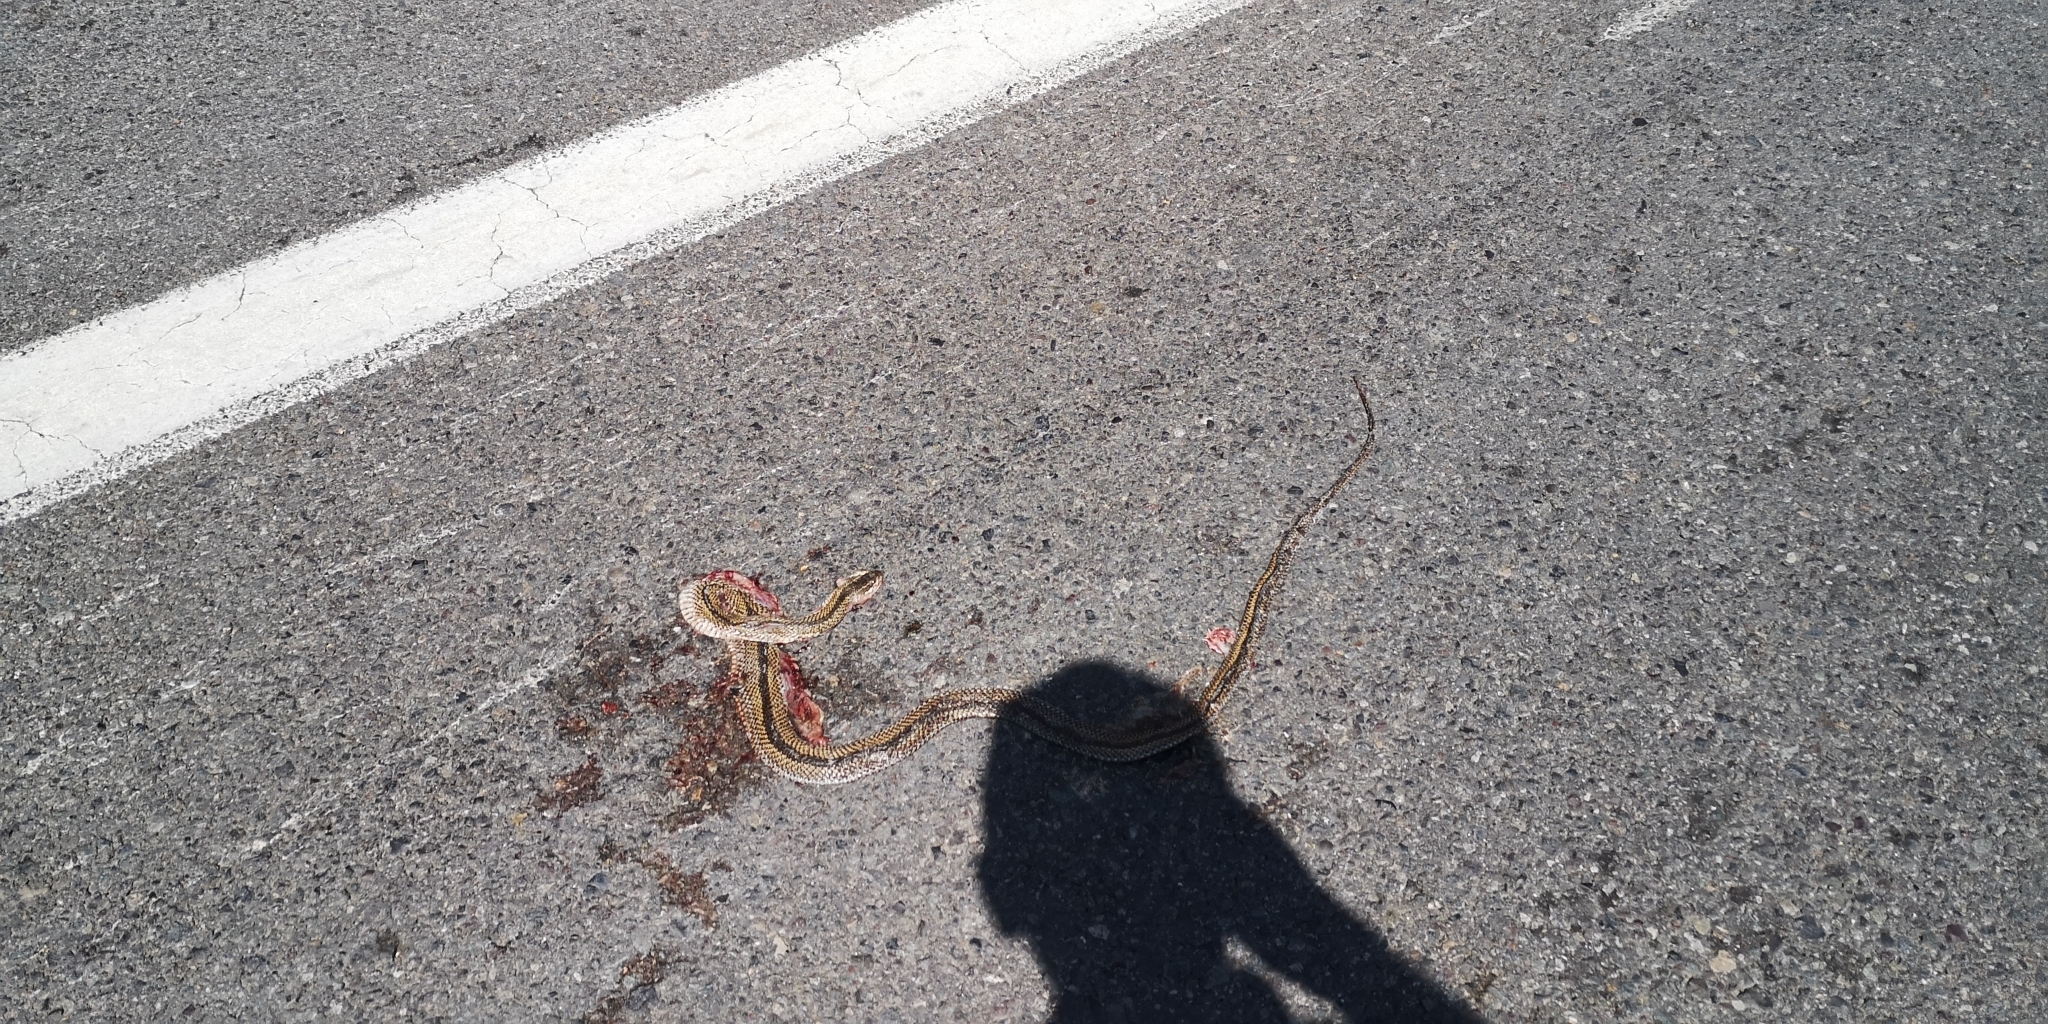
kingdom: Animalia
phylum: Chordata
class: Squamata
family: Colubridae
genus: Philodryas
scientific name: Philodryas chamissonis
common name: Chilean green racer
